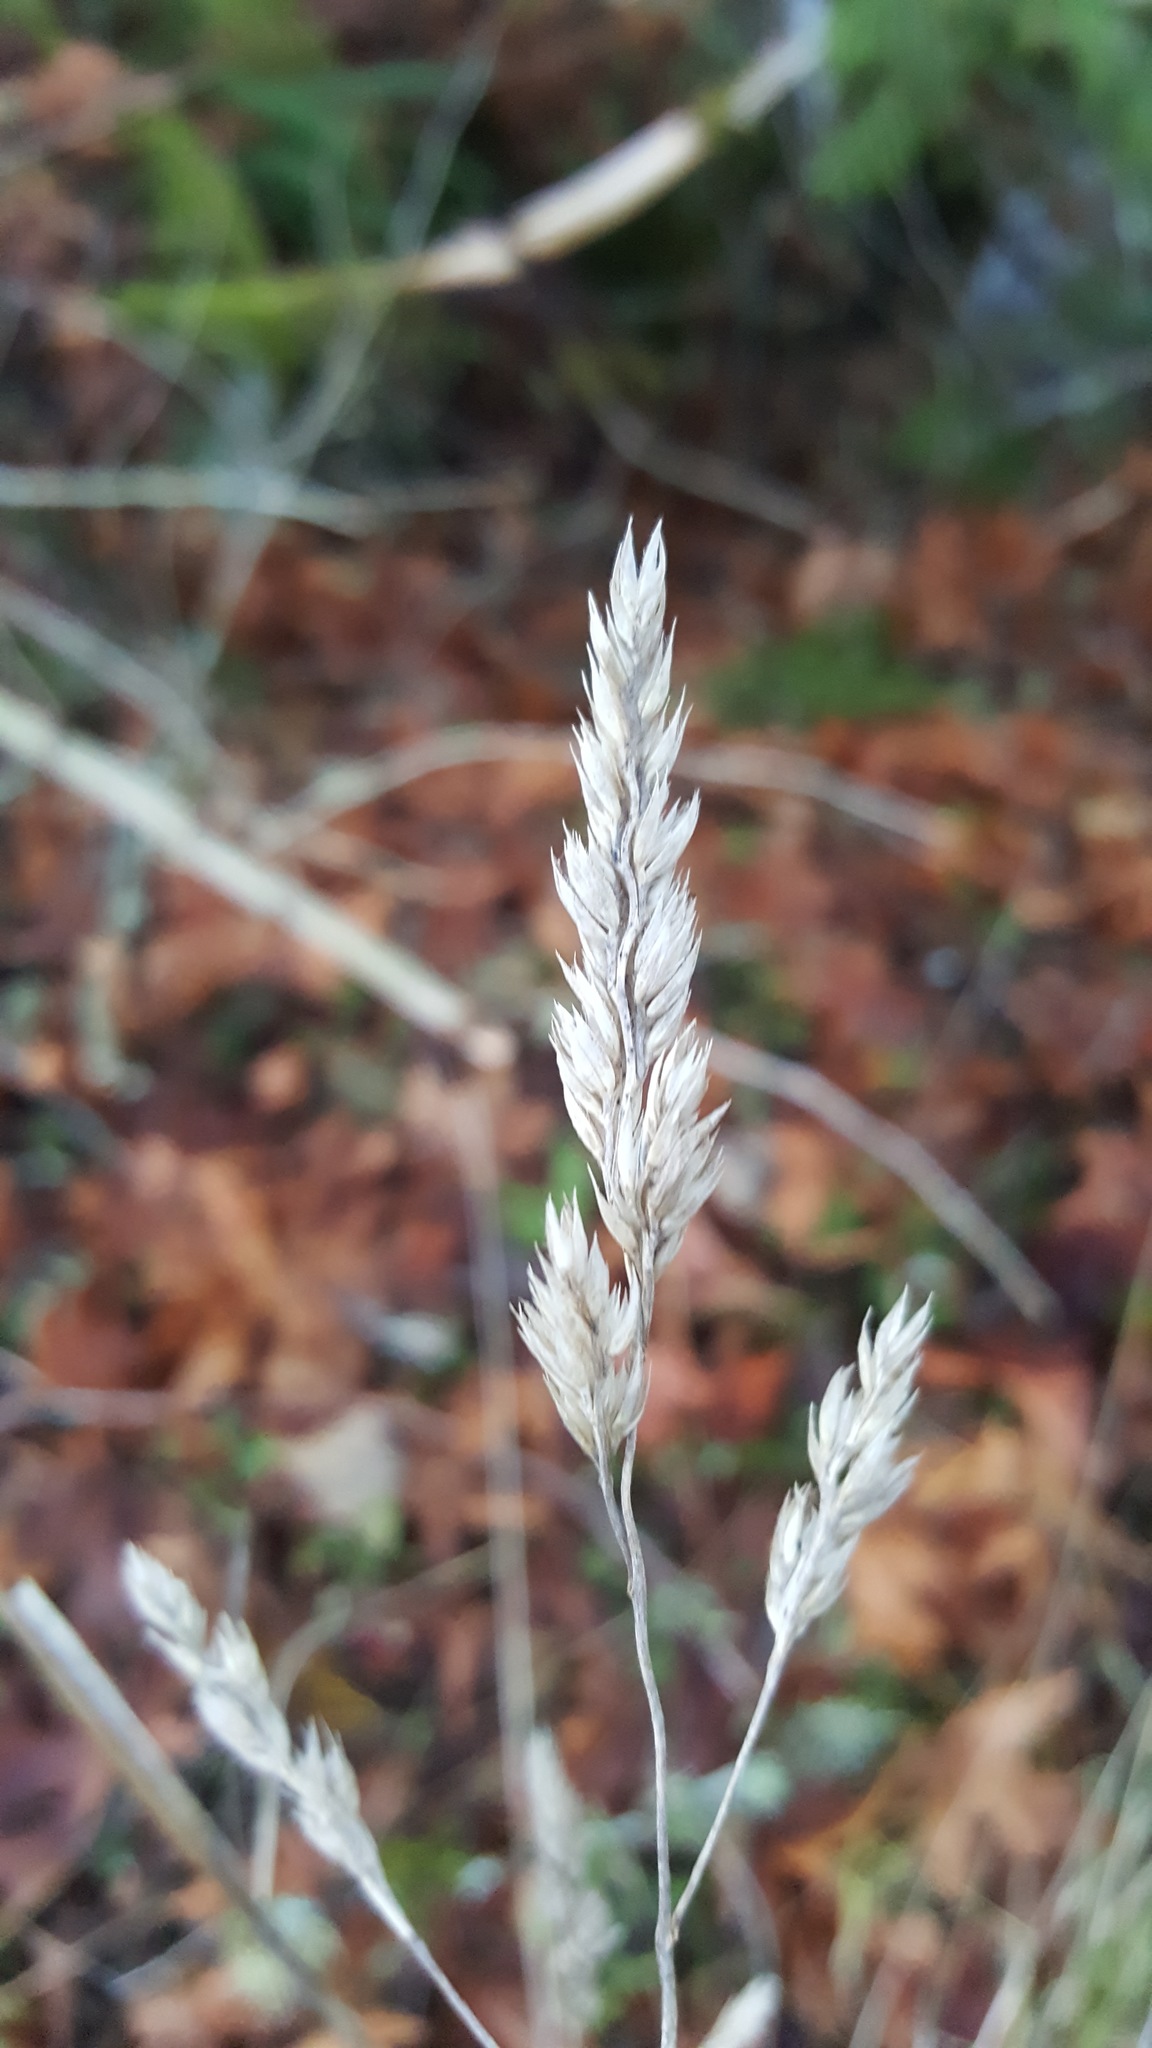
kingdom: Plantae
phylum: Tracheophyta
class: Liliopsida
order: Poales
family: Poaceae
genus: Dactylis
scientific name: Dactylis glomerata
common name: Orchardgrass
